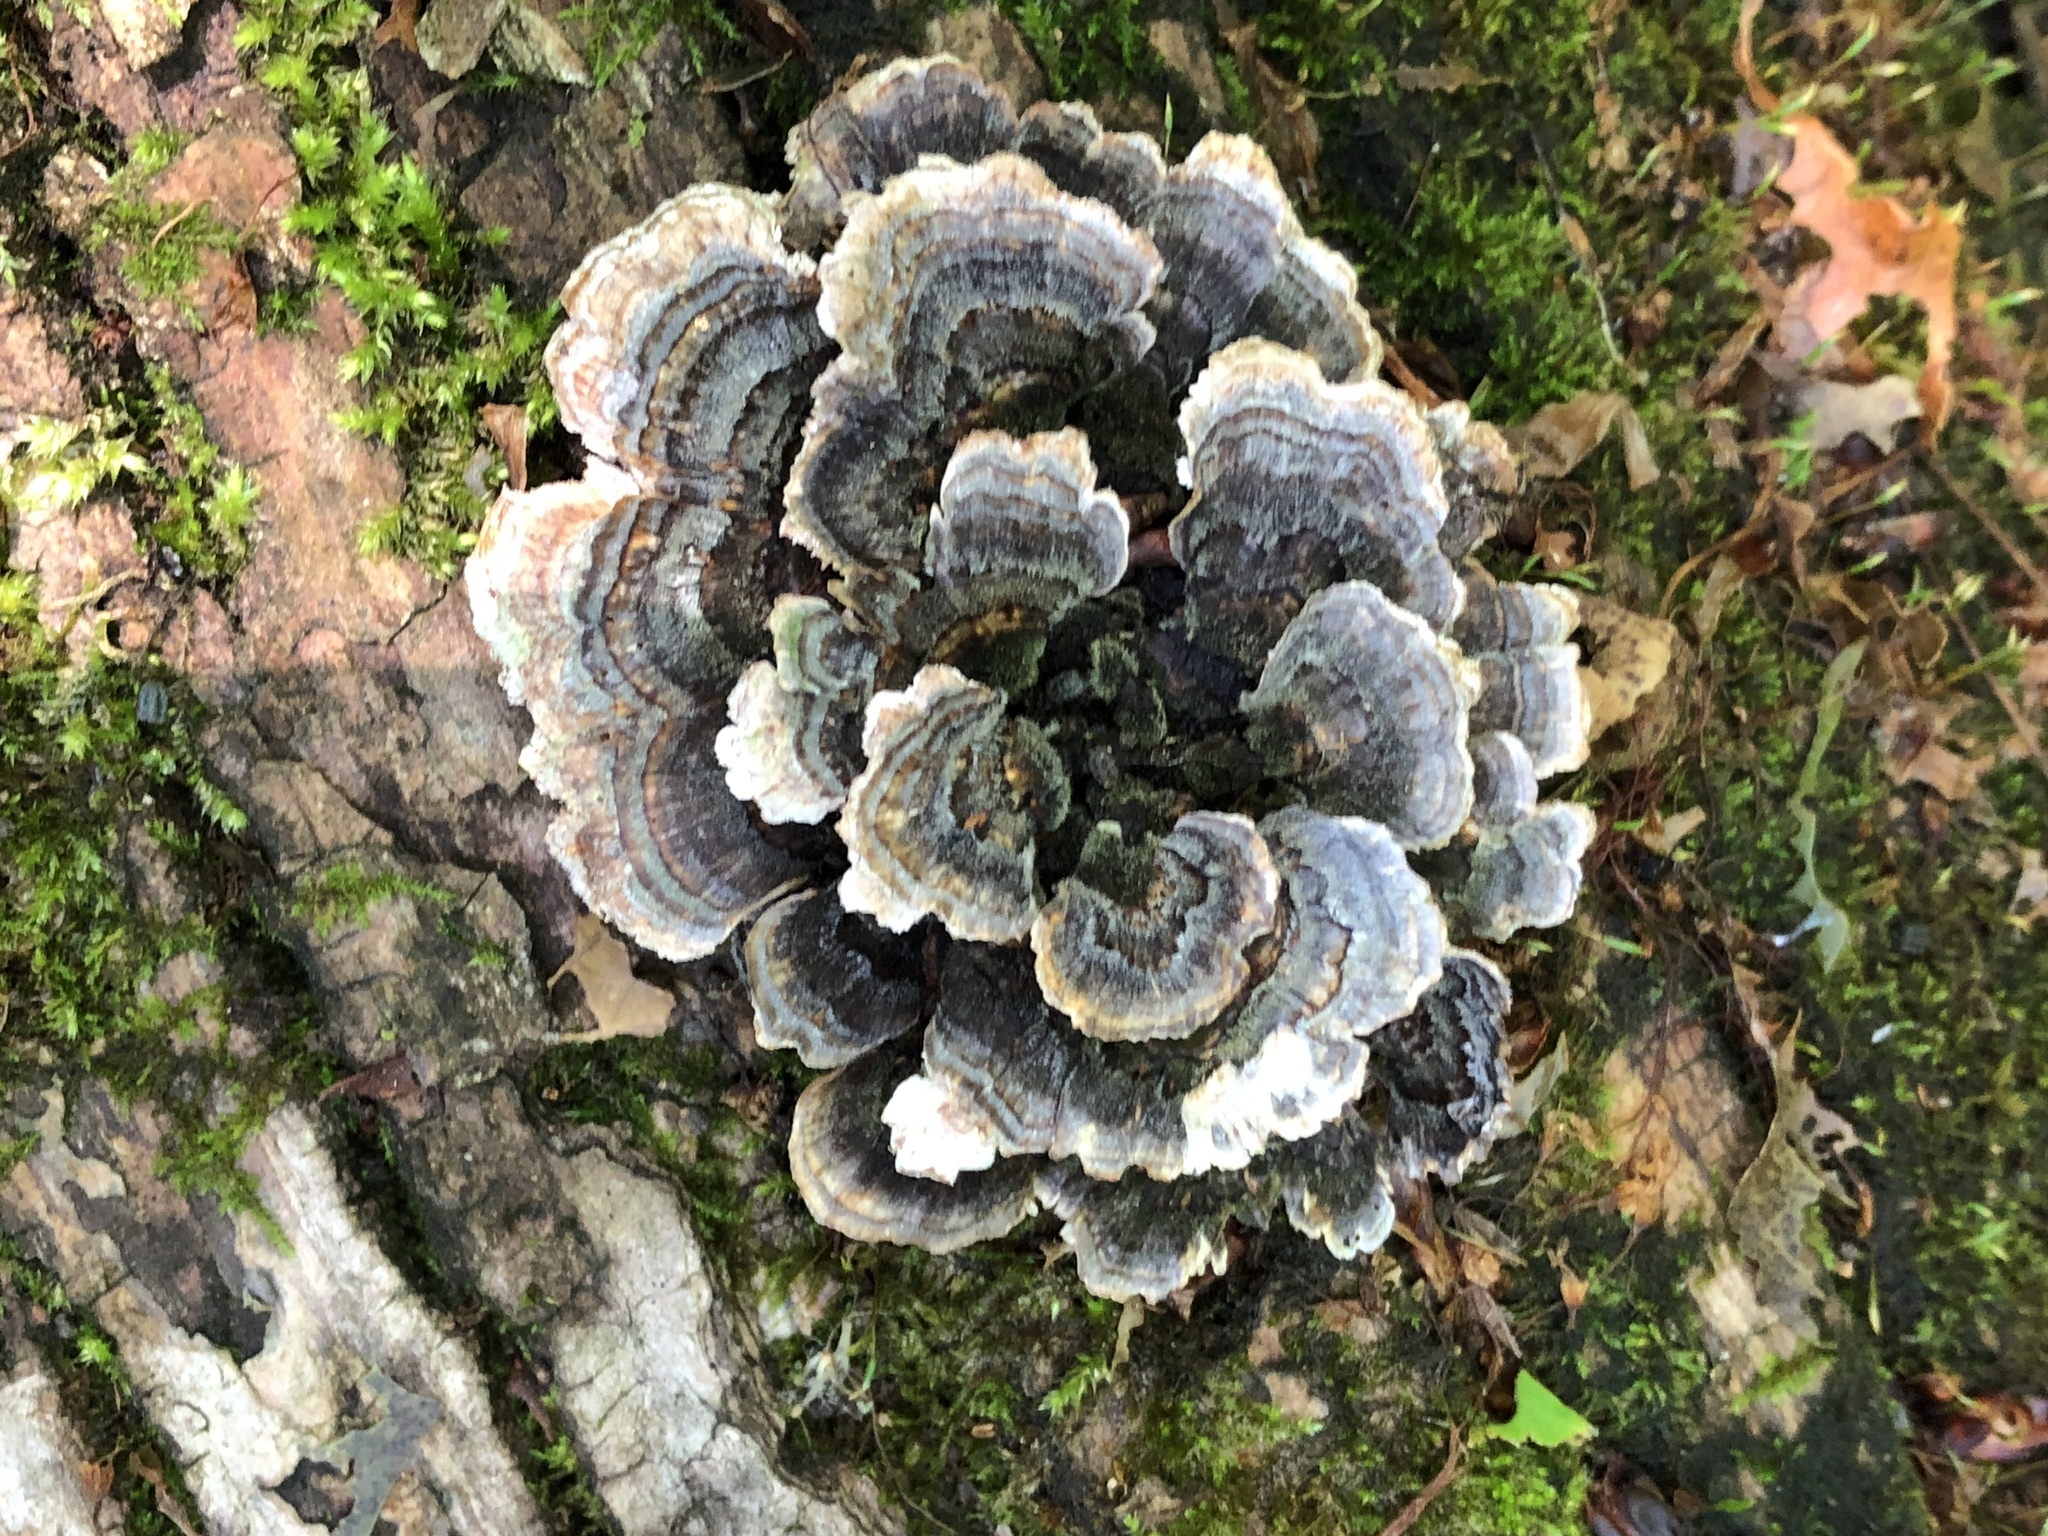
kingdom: Fungi
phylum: Basidiomycota
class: Agaricomycetes
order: Polyporales
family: Polyporaceae
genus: Trametes
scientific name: Trametes versicolor
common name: Turkeytail
